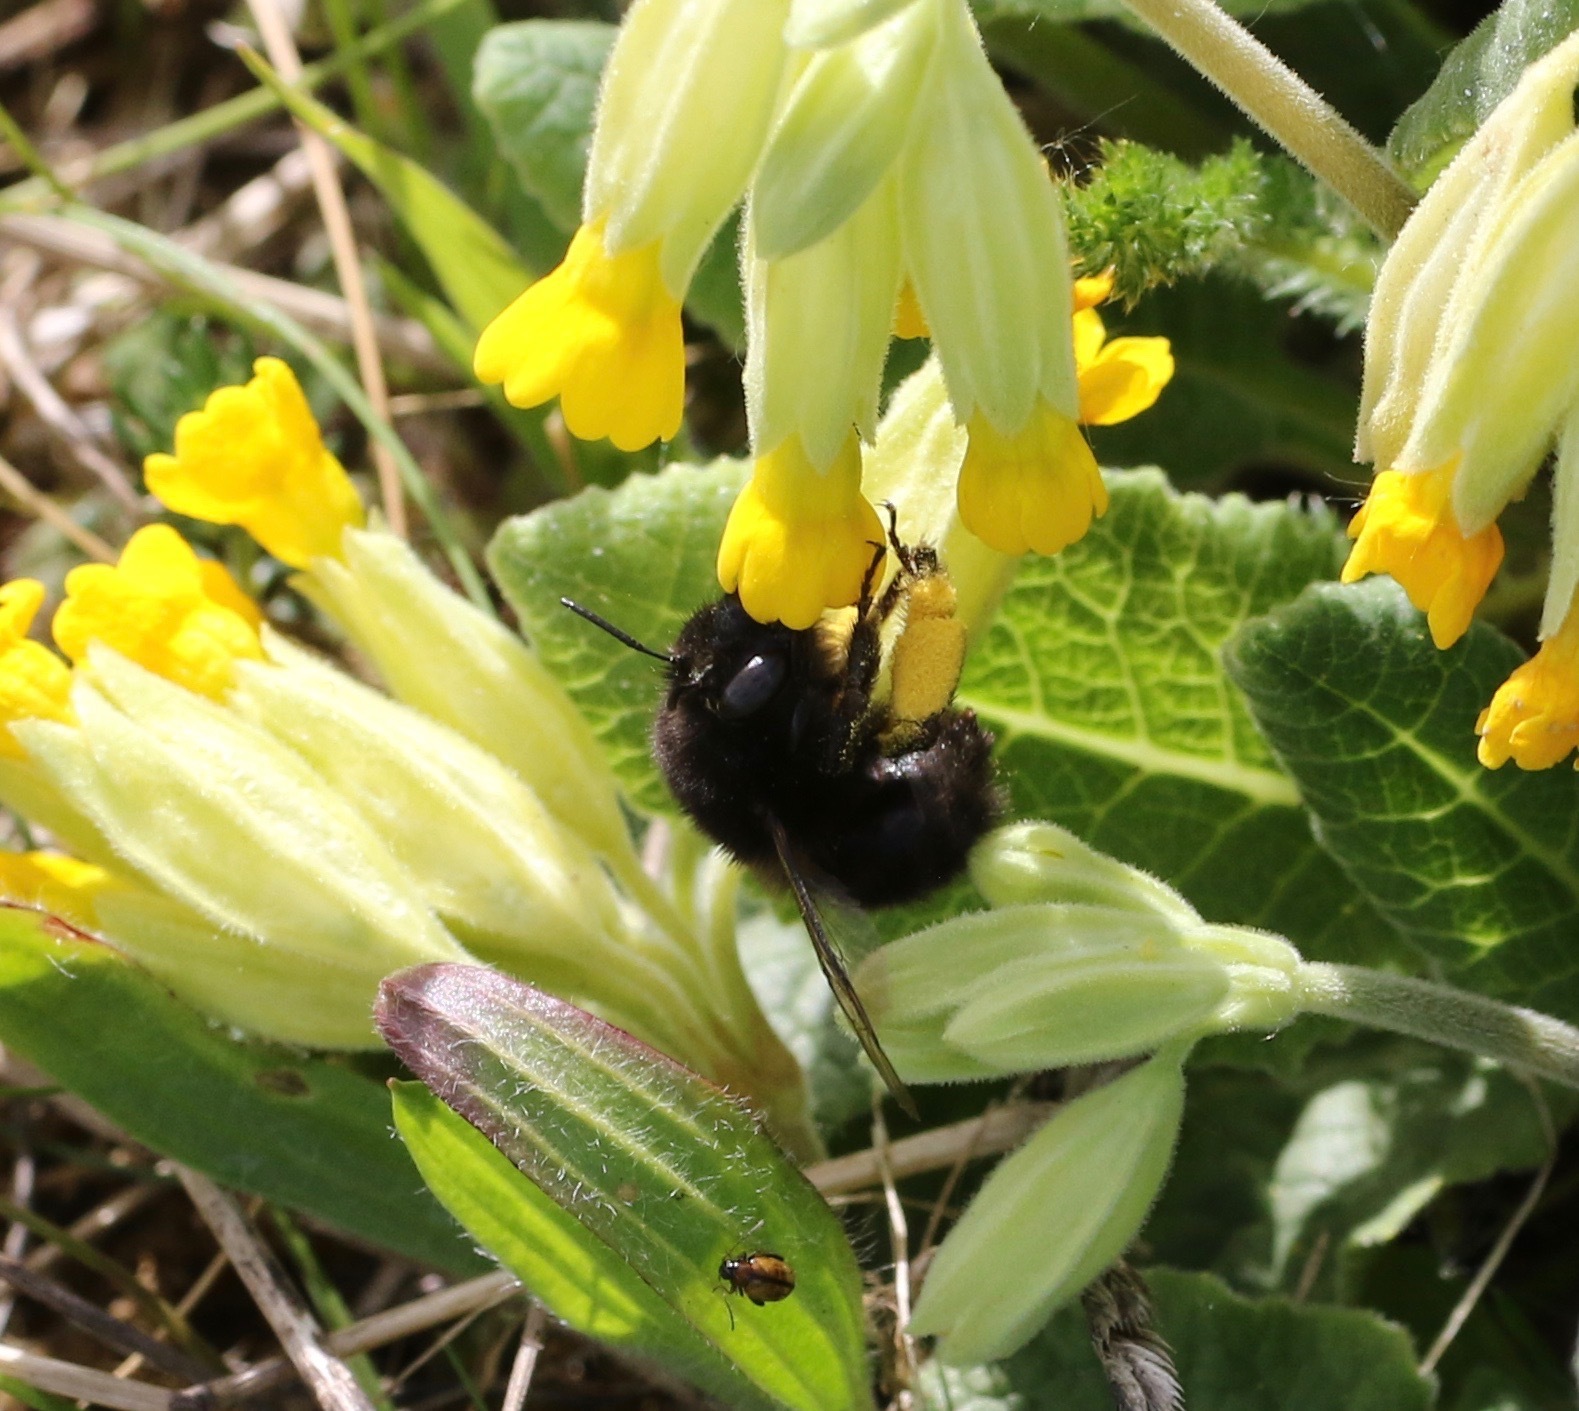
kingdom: Animalia
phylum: Arthropoda
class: Insecta
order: Hymenoptera
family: Apidae
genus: Anthophora
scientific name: Anthophora plumipes
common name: Hairy-footed flower bee
